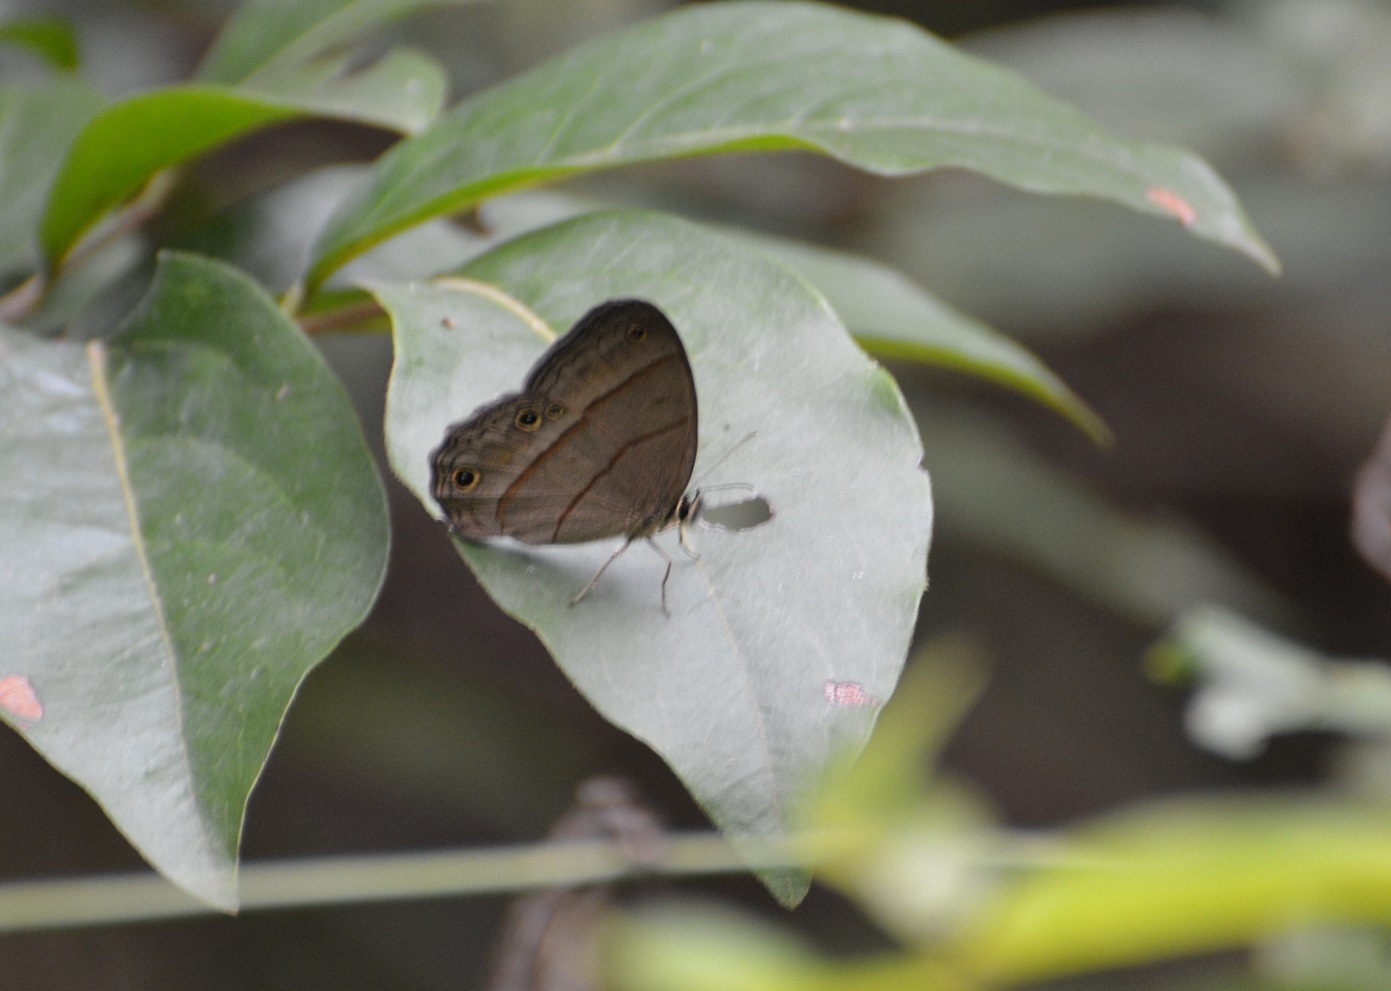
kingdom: Animalia
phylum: Arthropoda
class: Insecta
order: Lepidoptera
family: Nymphalidae
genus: Euptychia
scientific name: Euptychia Cissia pompilia
